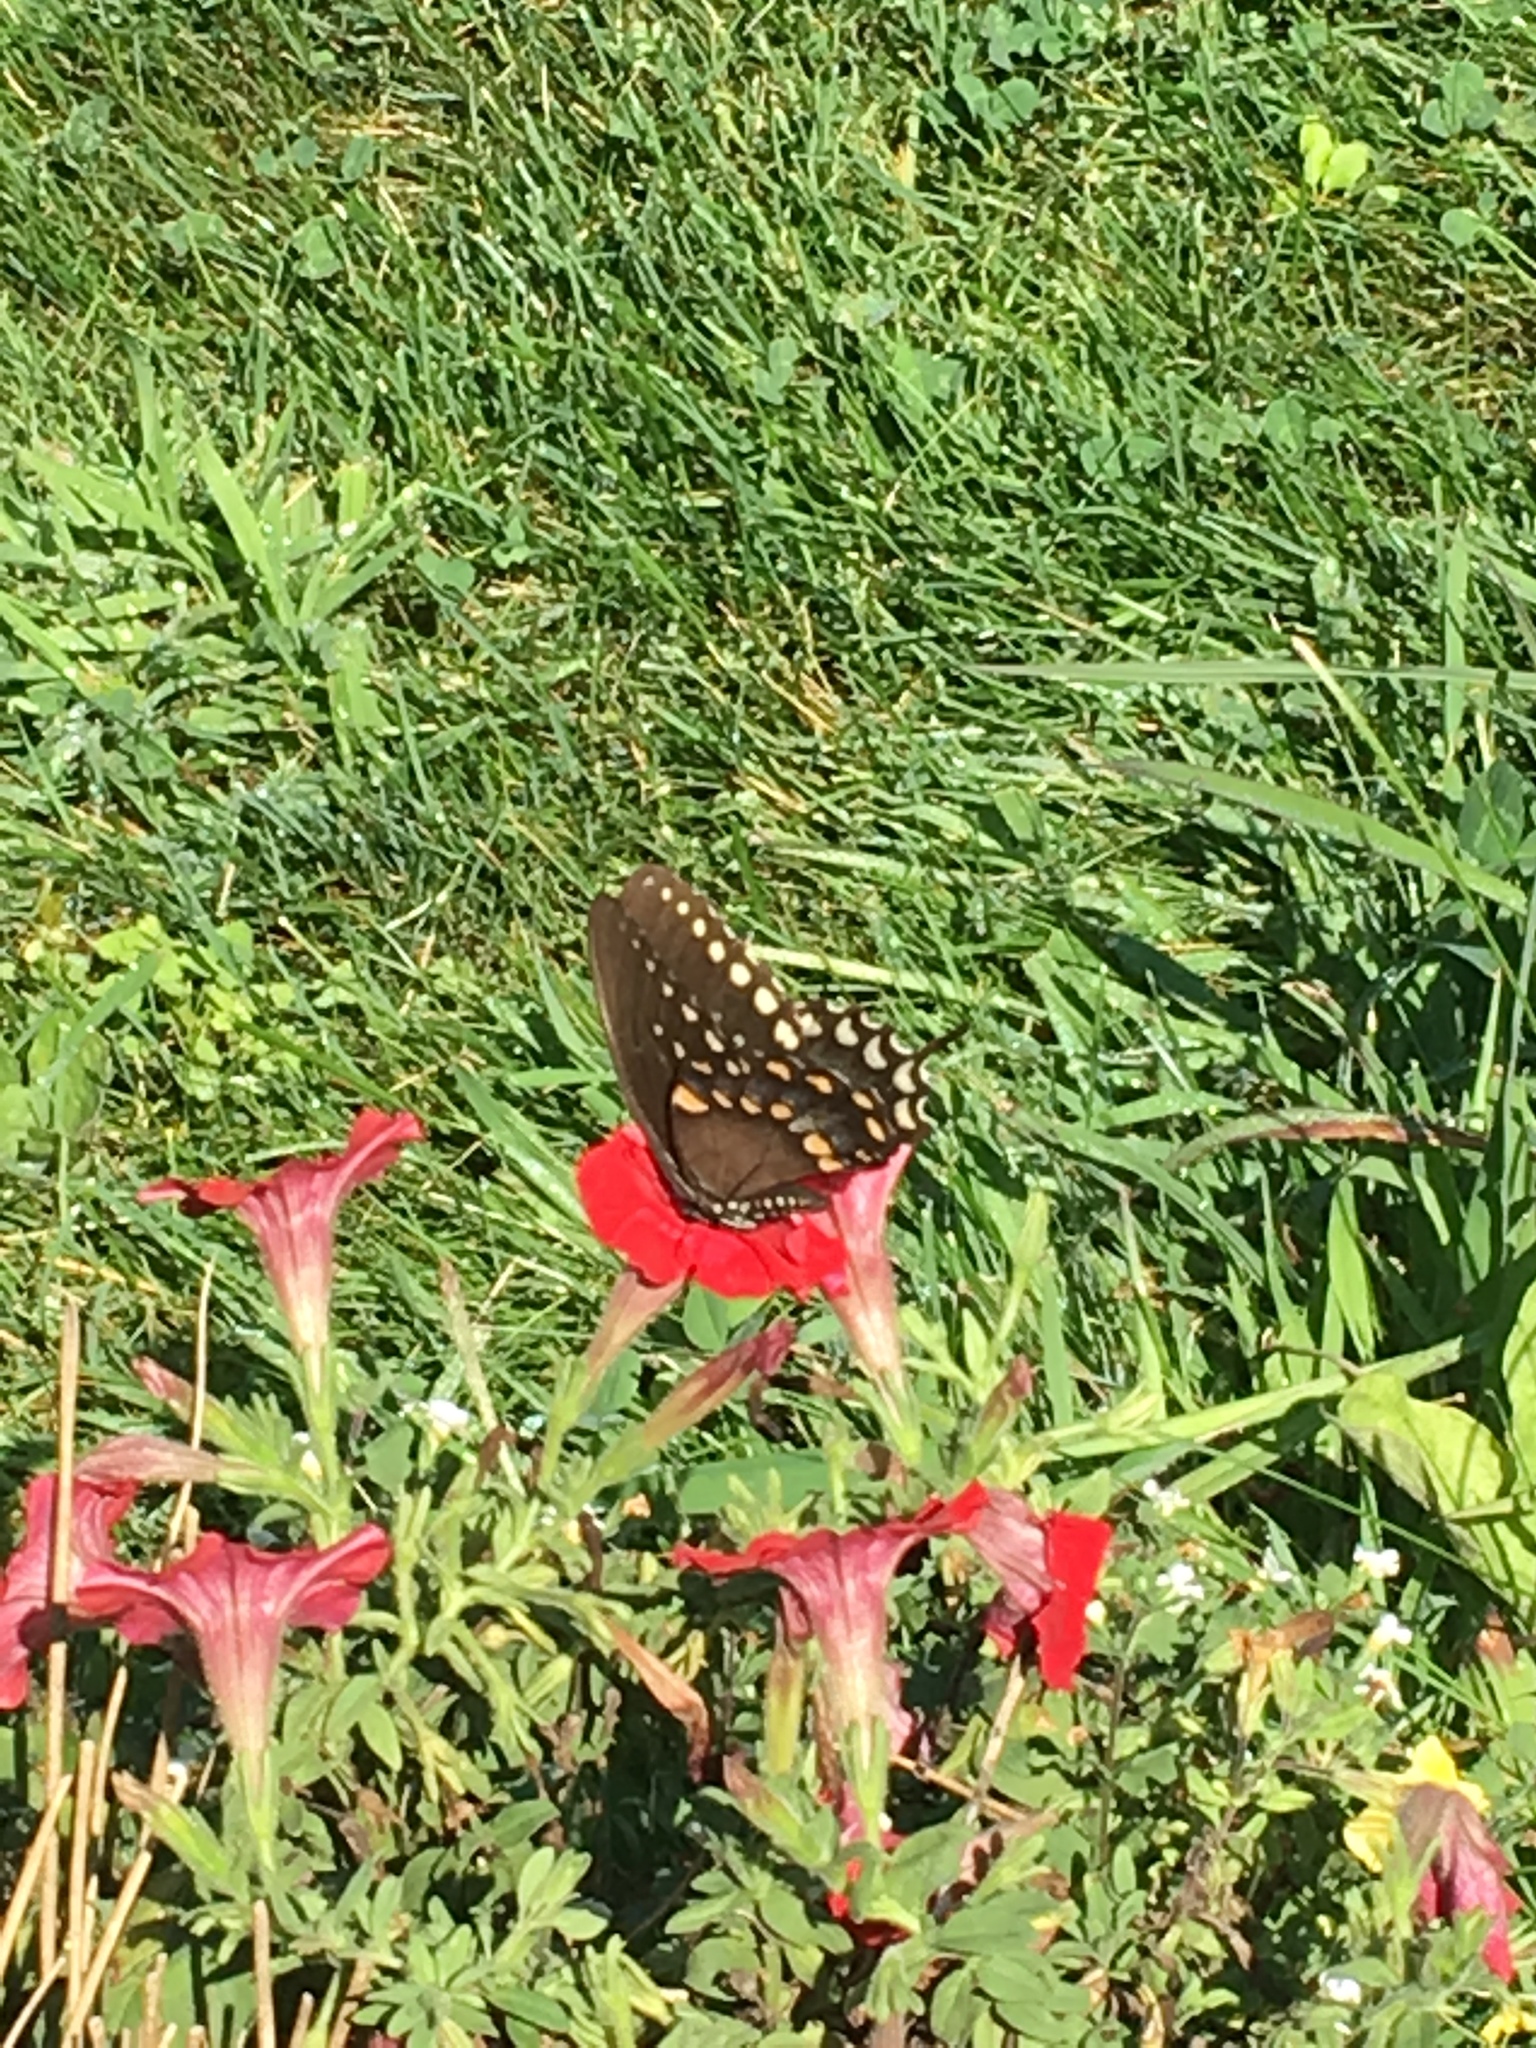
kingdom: Animalia
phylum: Arthropoda
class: Insecta
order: Lepidoptera
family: Papilionidae
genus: Papilio
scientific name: Papilio troilus
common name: Spicebush swallowtail
